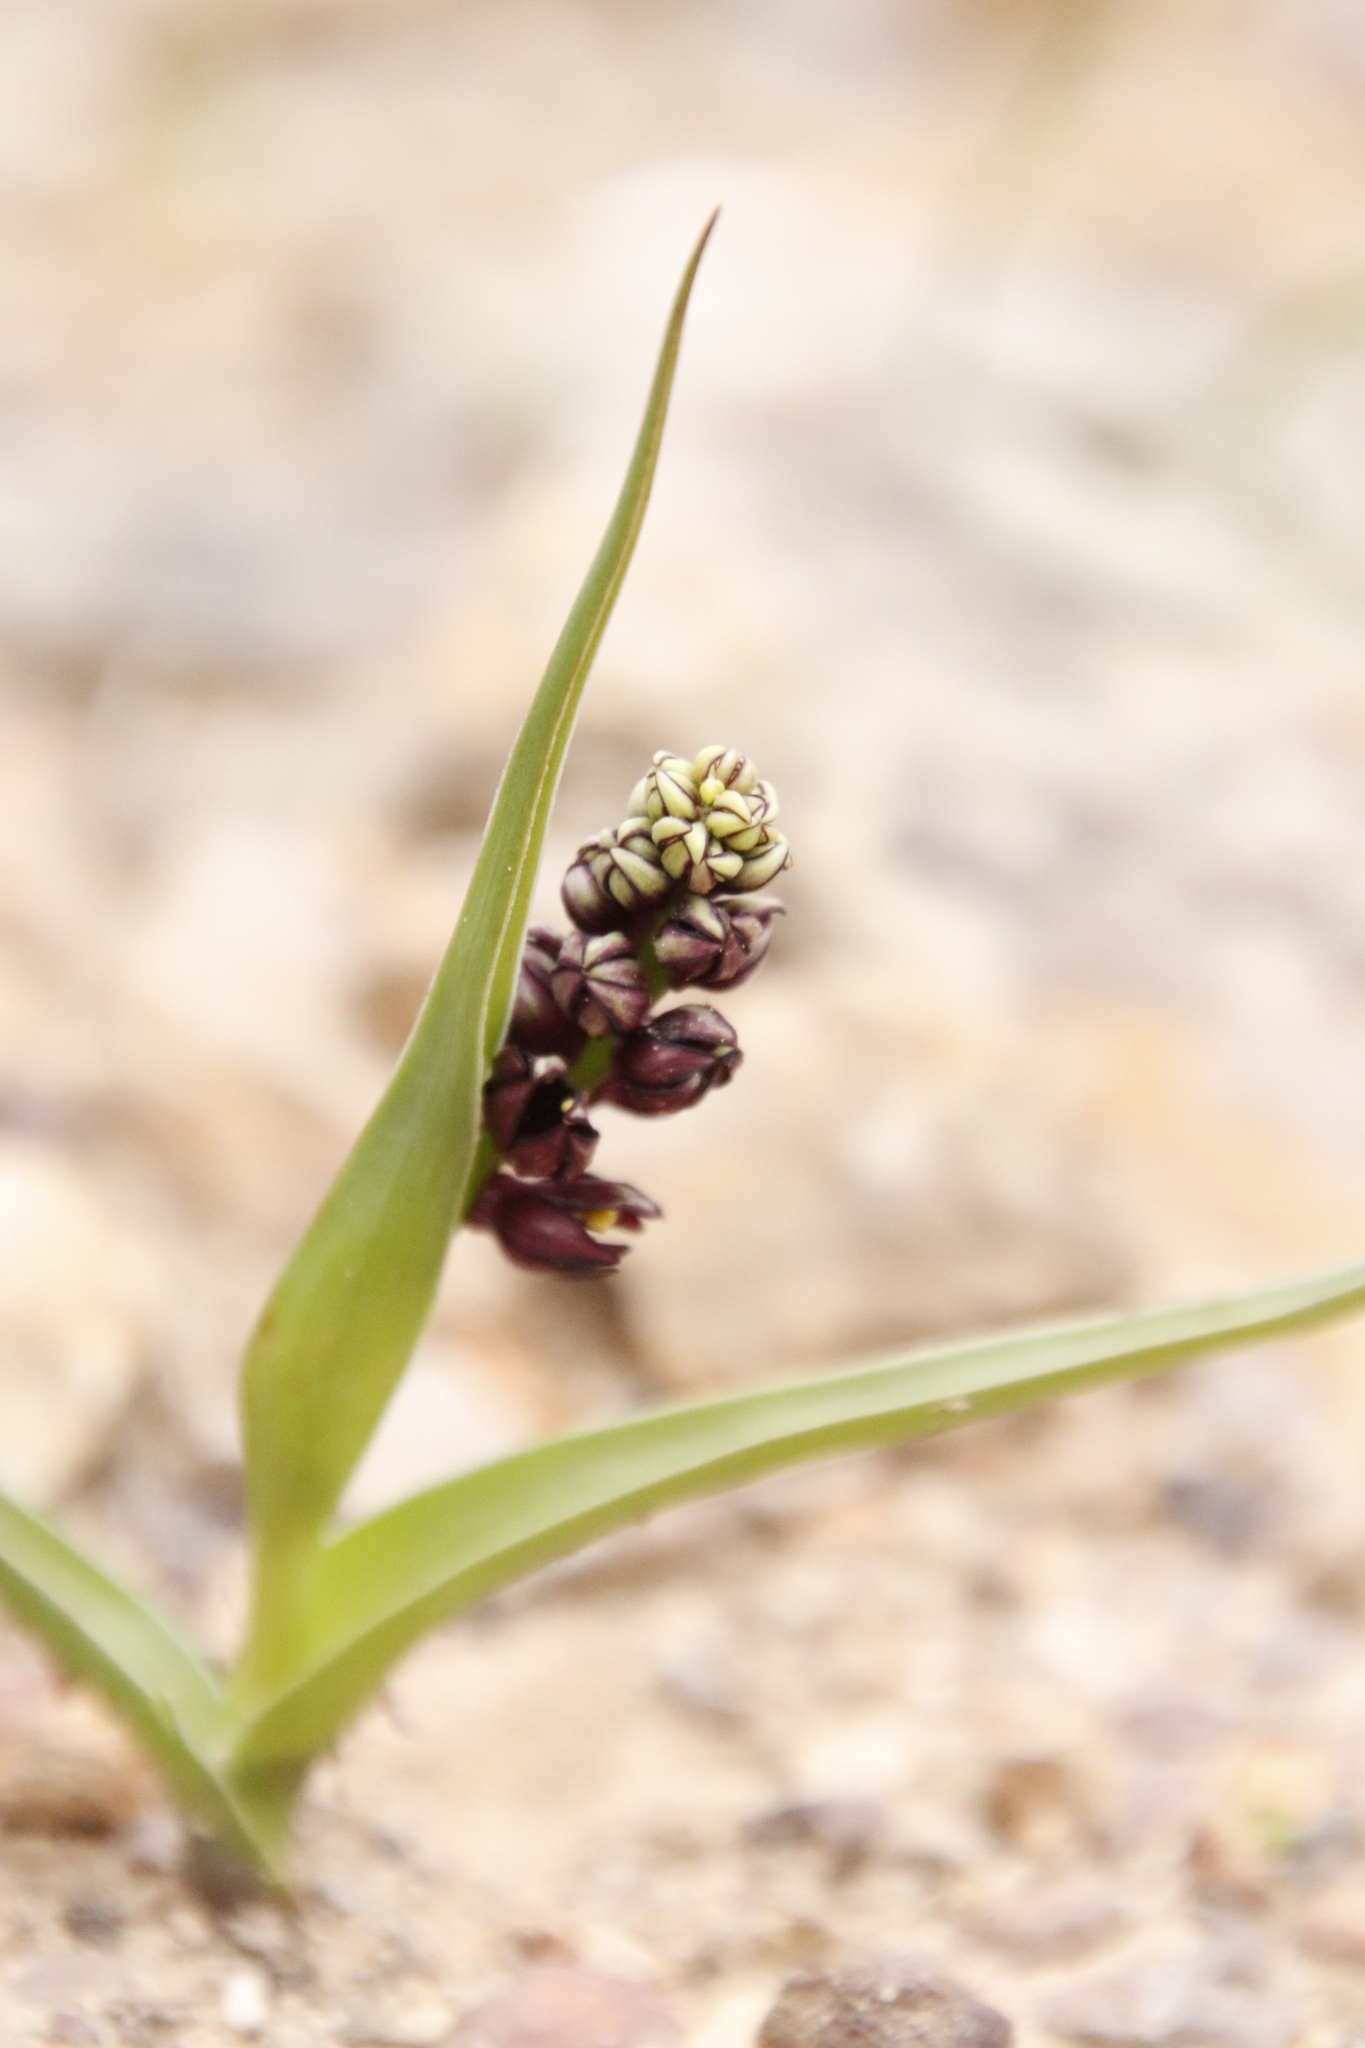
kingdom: Plantae
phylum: Tracheophyta
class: Liliopsida
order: Liliales
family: Colchicaceae
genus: Wurmbea
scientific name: Wurmbea recurva
